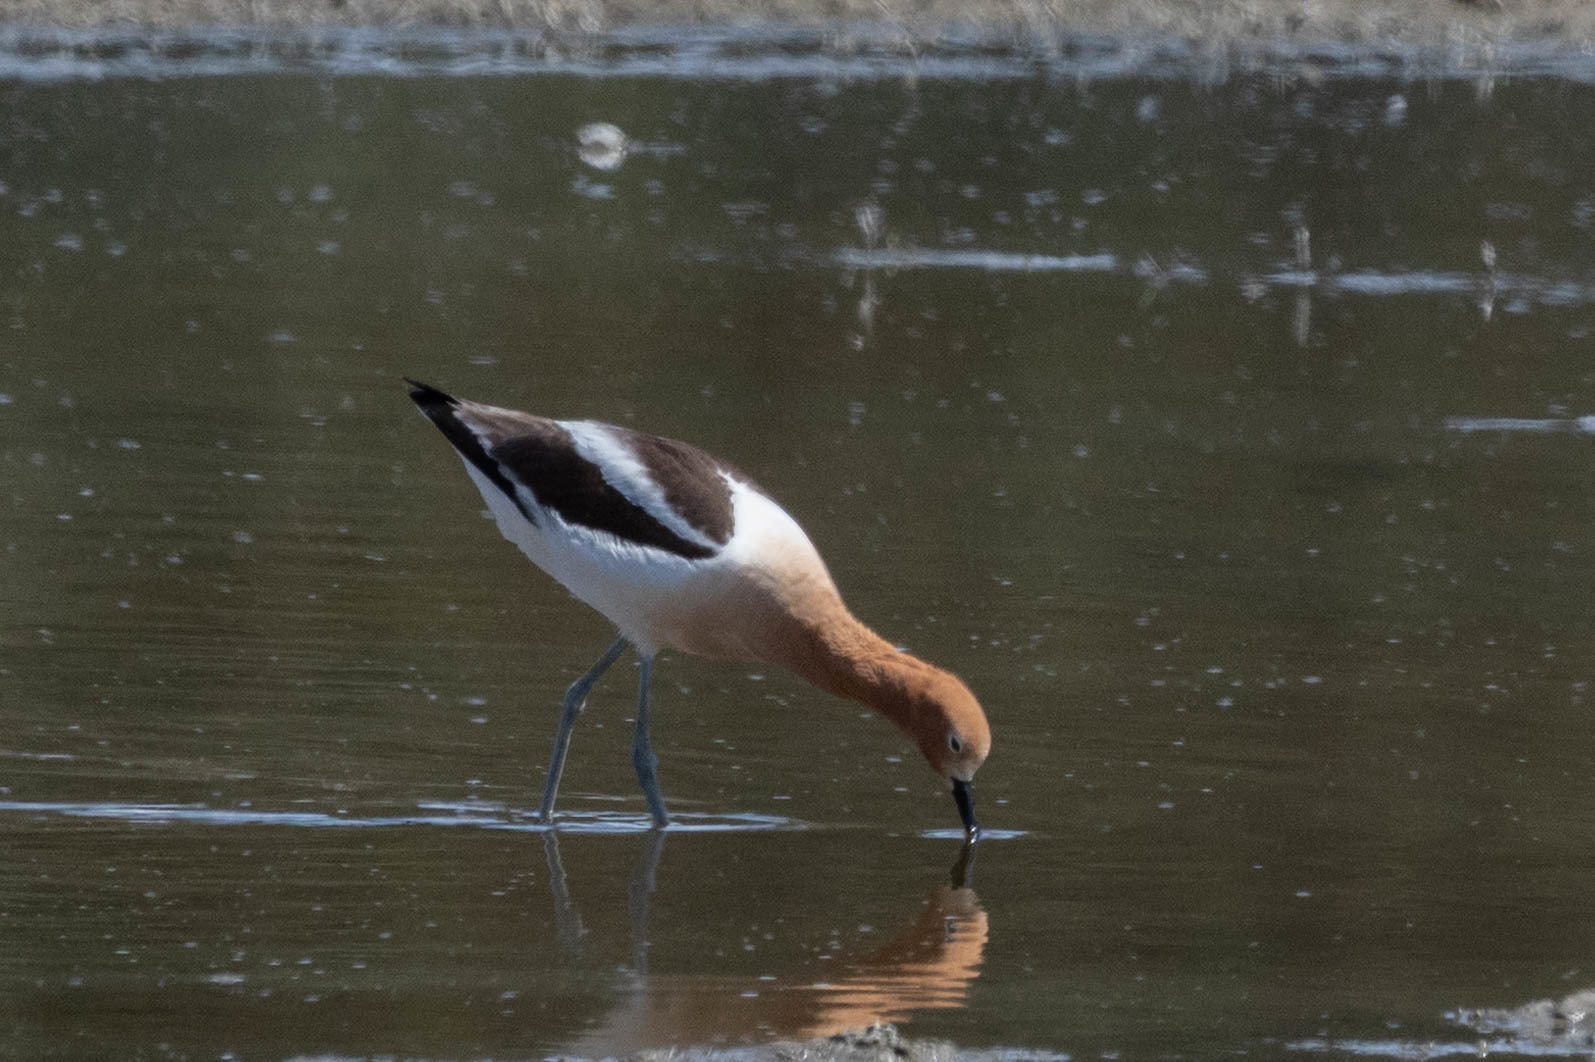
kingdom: Animalia
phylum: Chordata
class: Aves
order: Charadriiformes
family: Recurvirostridae
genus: Recurvirostra
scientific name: Recurvirostra americana
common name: American avocet
